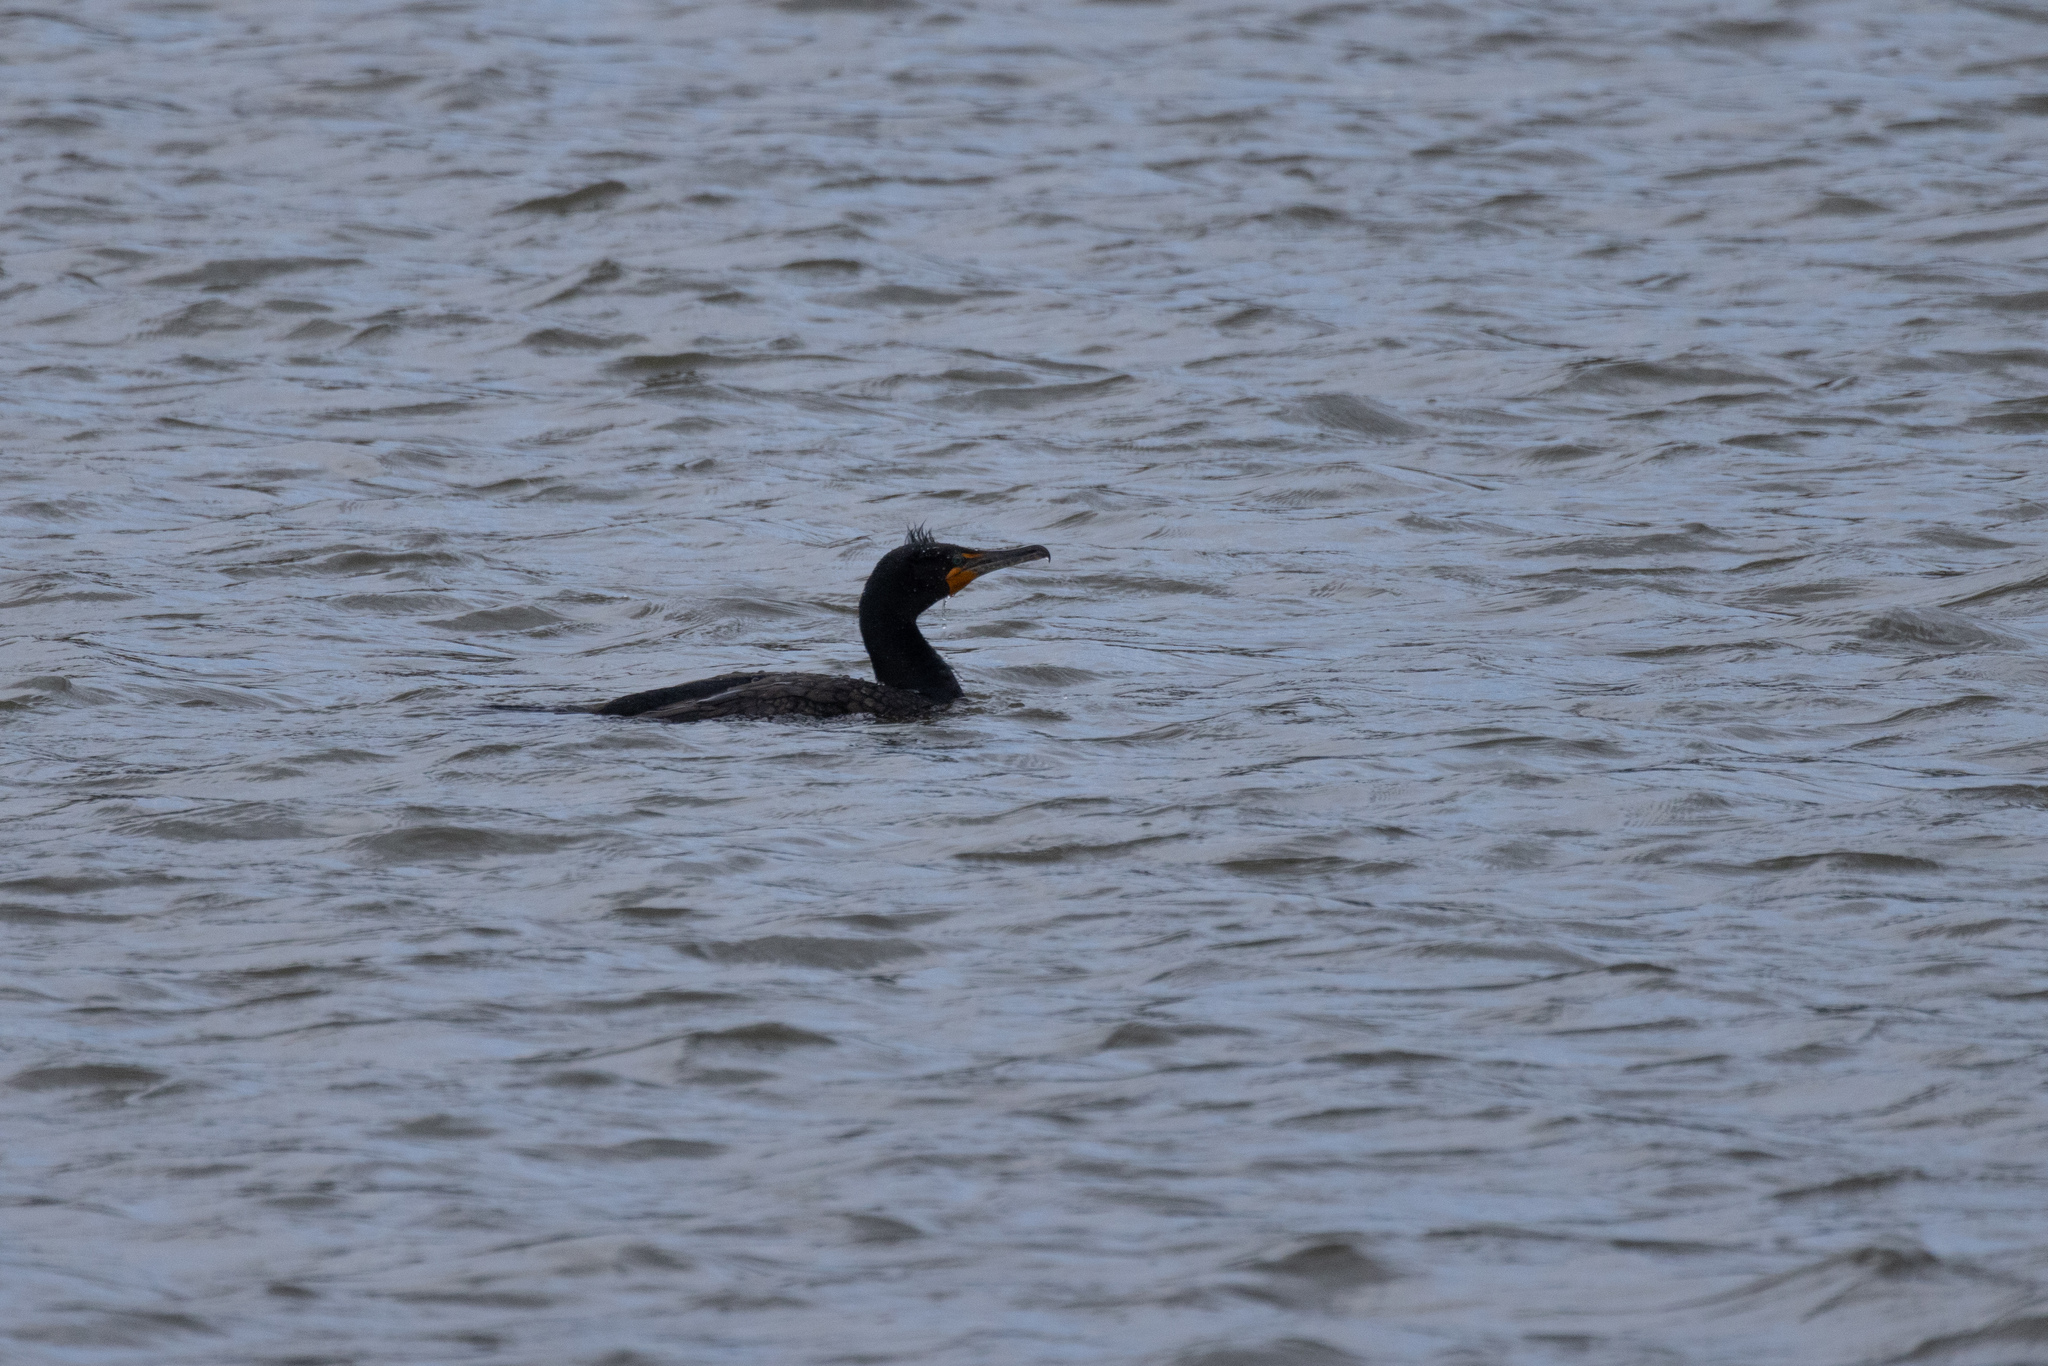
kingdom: Animalia
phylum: Chordata
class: Aves
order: Suliformes
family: Phalacrocoracidae
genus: Phalacrocorax
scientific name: Phalacrocorax auritus
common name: Double-crested cormorant
